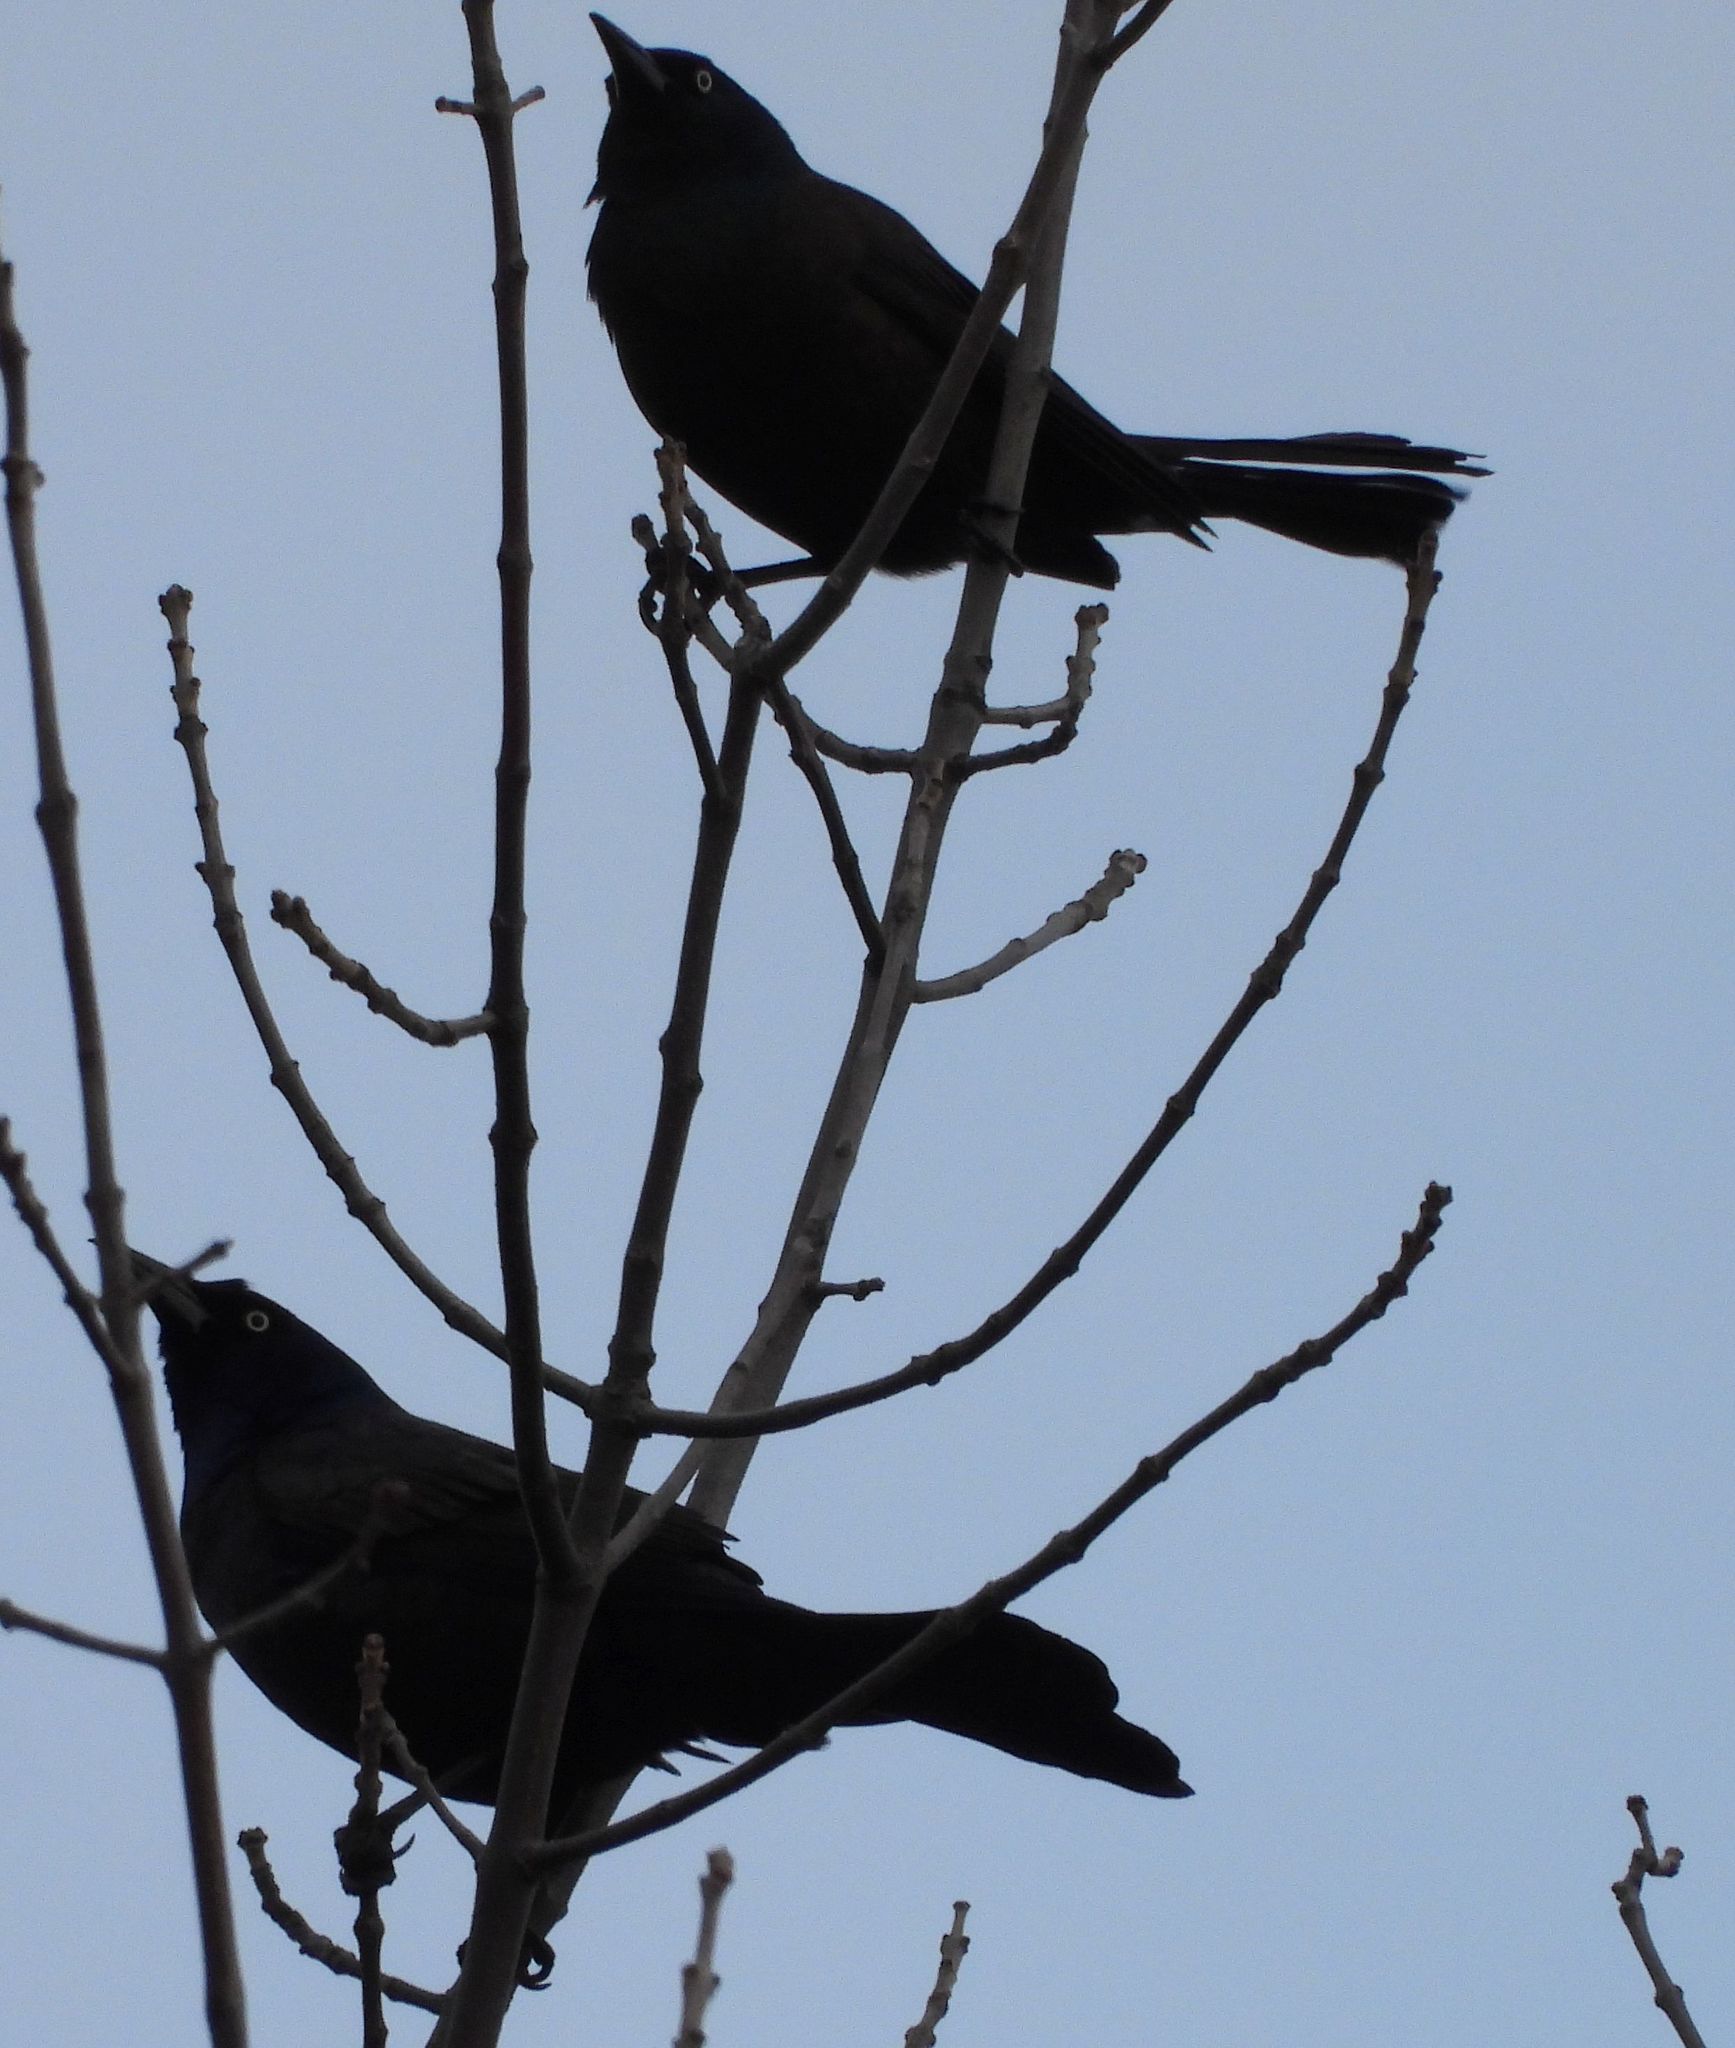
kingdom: Animalia
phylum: Chordata
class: Aves
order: Passeriformes
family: Icteridae
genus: Quiscalus
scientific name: Quiscalus quiscula
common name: Common grackle
